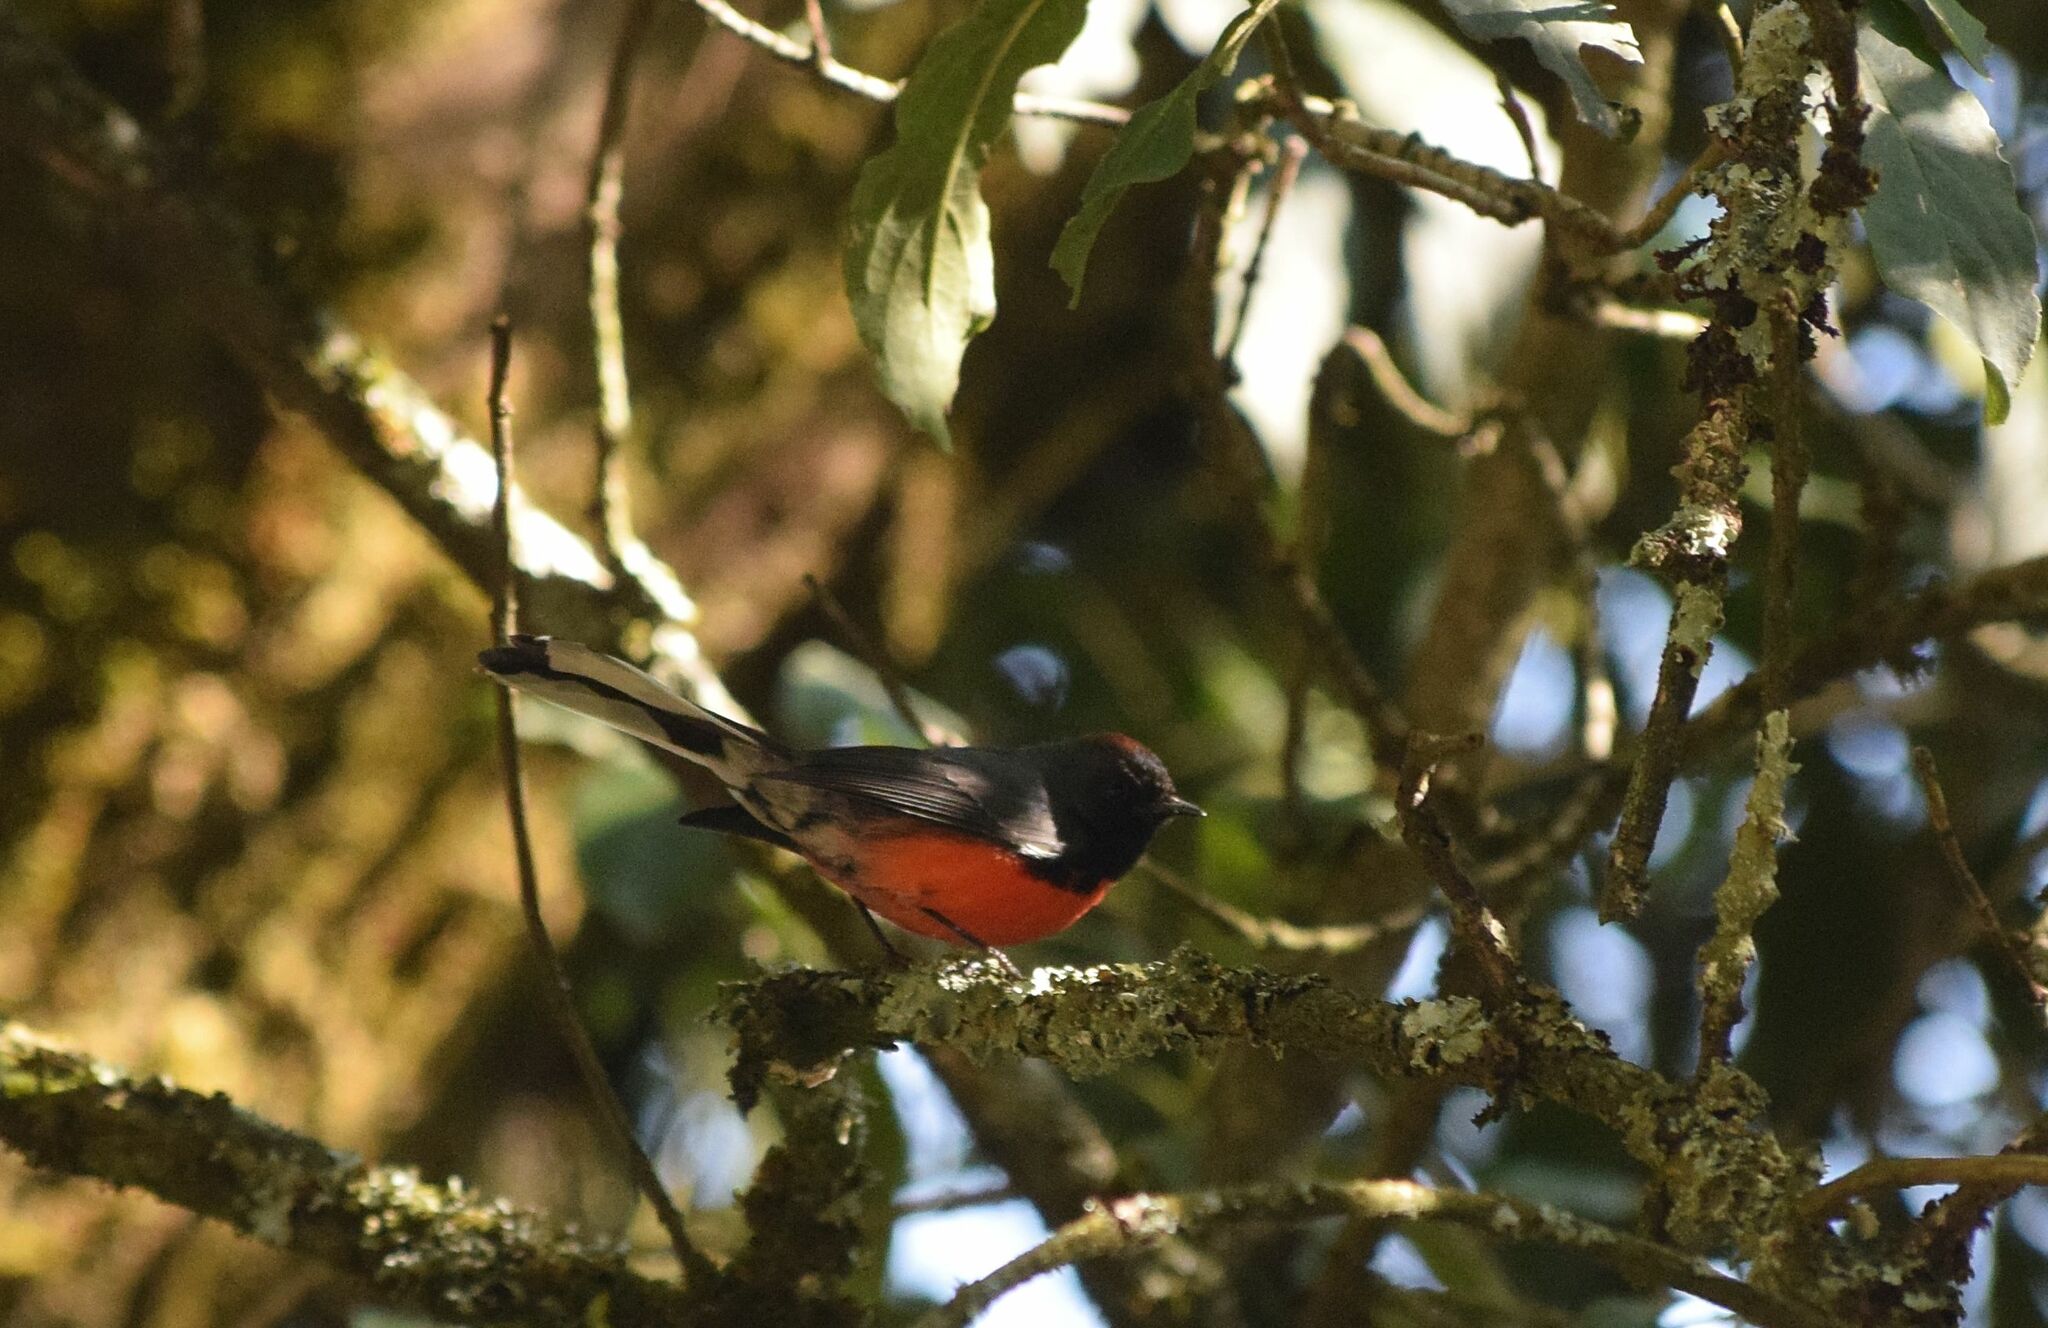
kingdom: Animalia
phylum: Chordata
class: Aves
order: Passeriformes
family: Parulidae
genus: Myioborus
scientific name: Myioborus miniatus
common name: Slate-throated redstart
